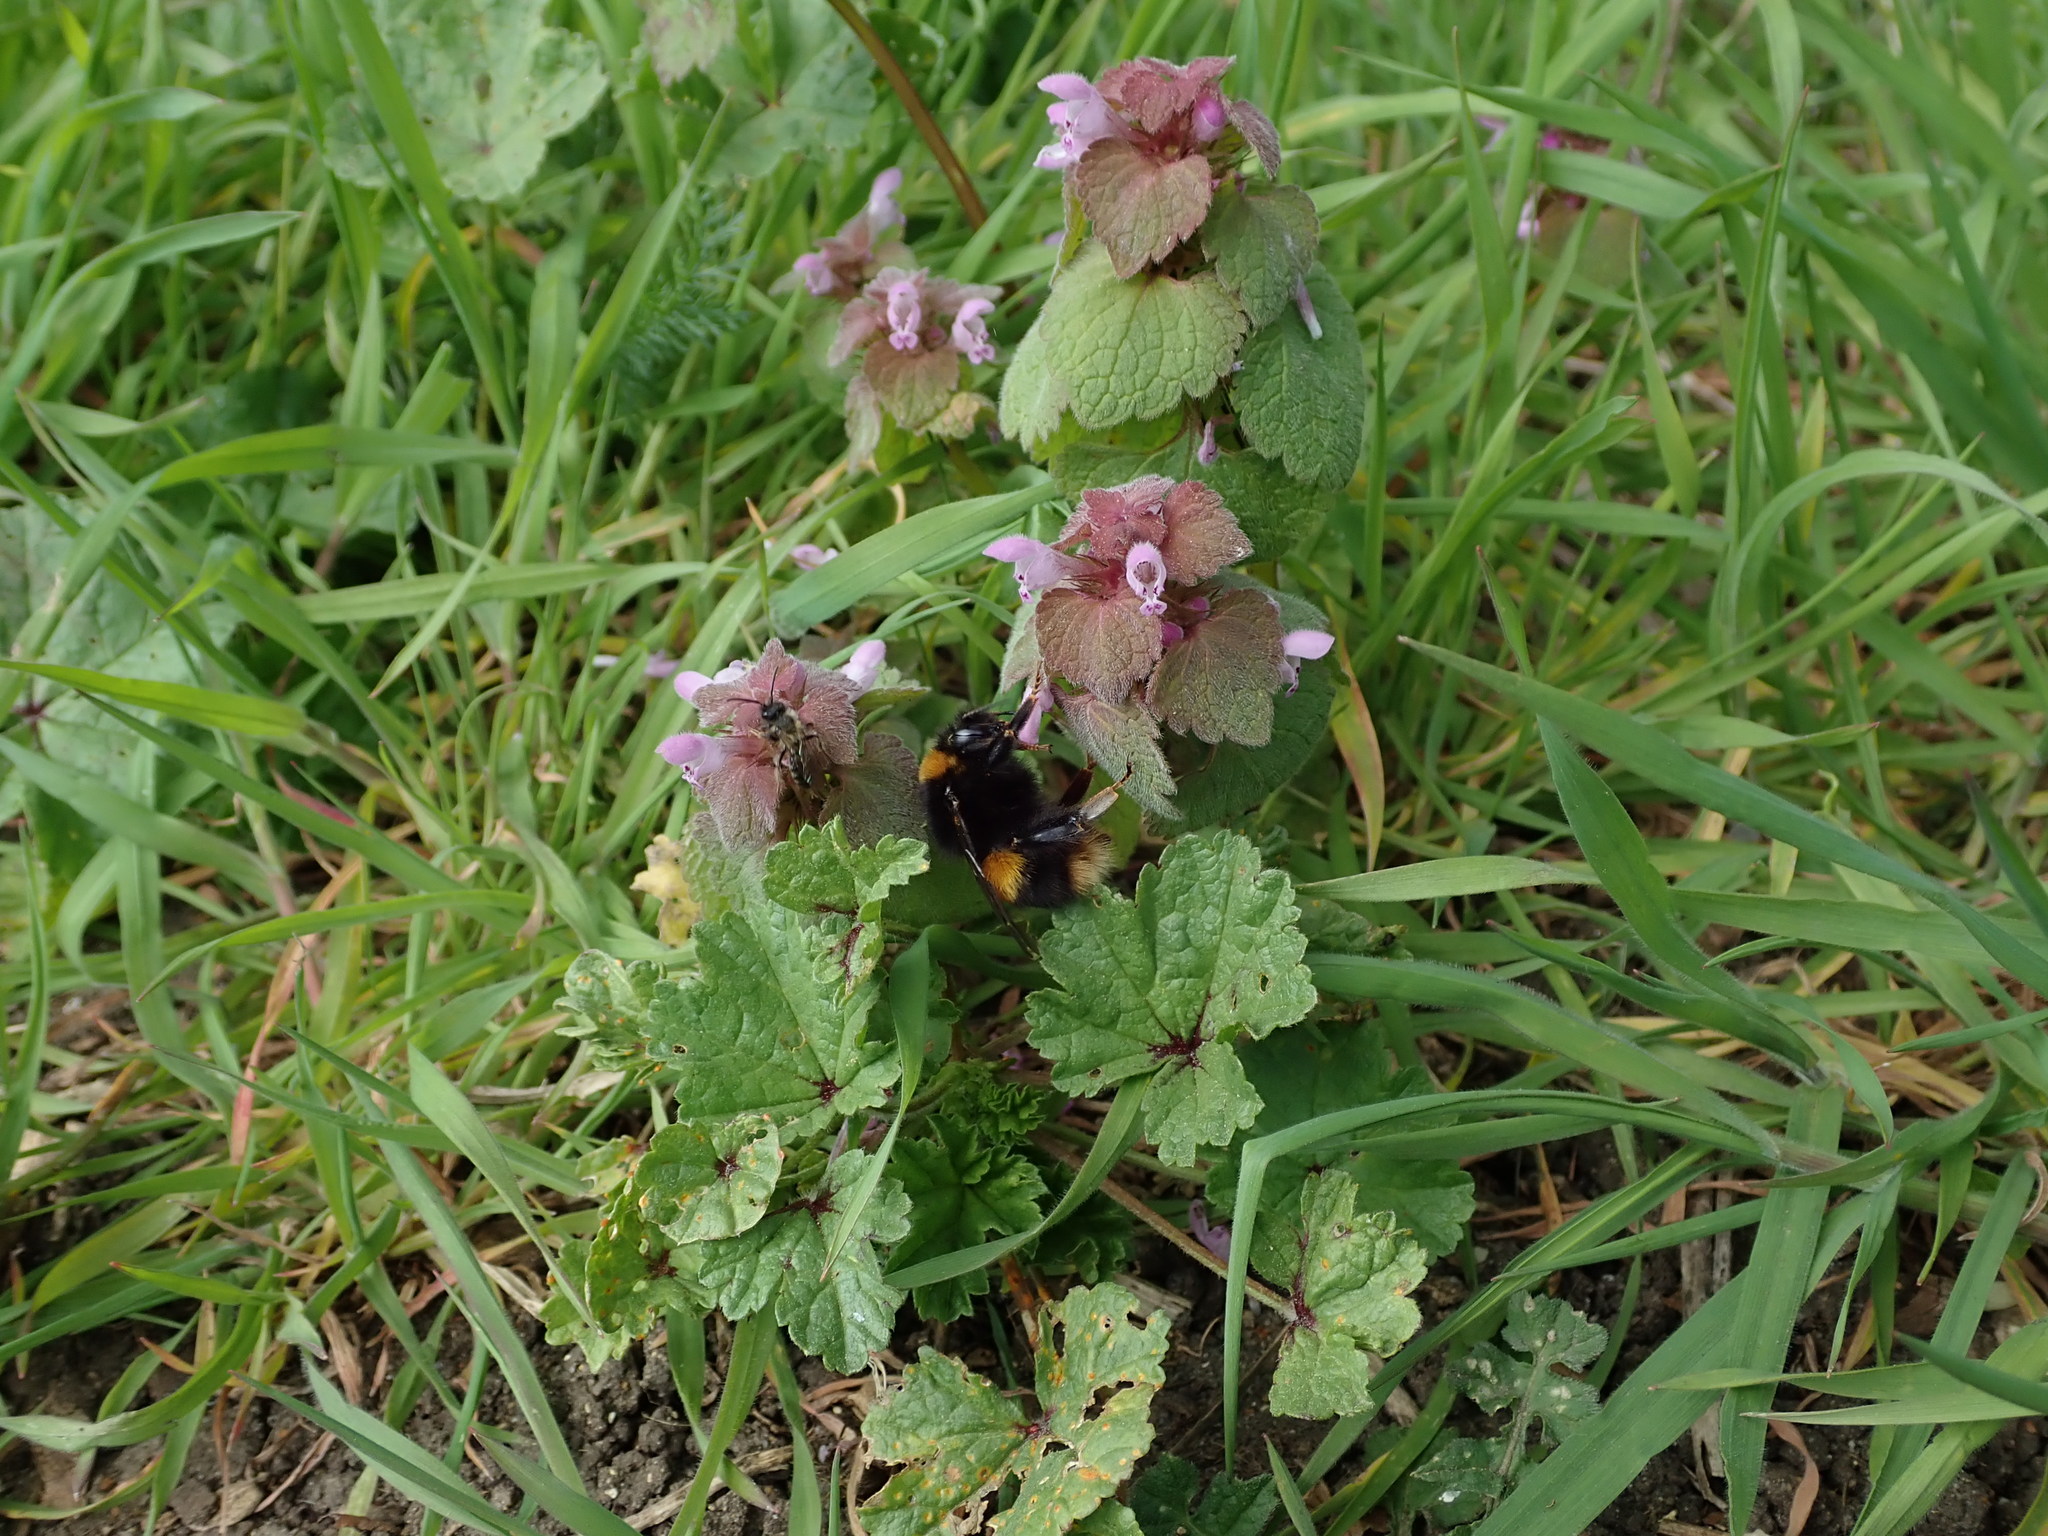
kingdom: Animalia
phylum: Arthropoda
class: Insecta
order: Hymenoptera
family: Apidae
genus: Bombus
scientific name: Bombus terrestris
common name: Buff-tailed bumblebee
